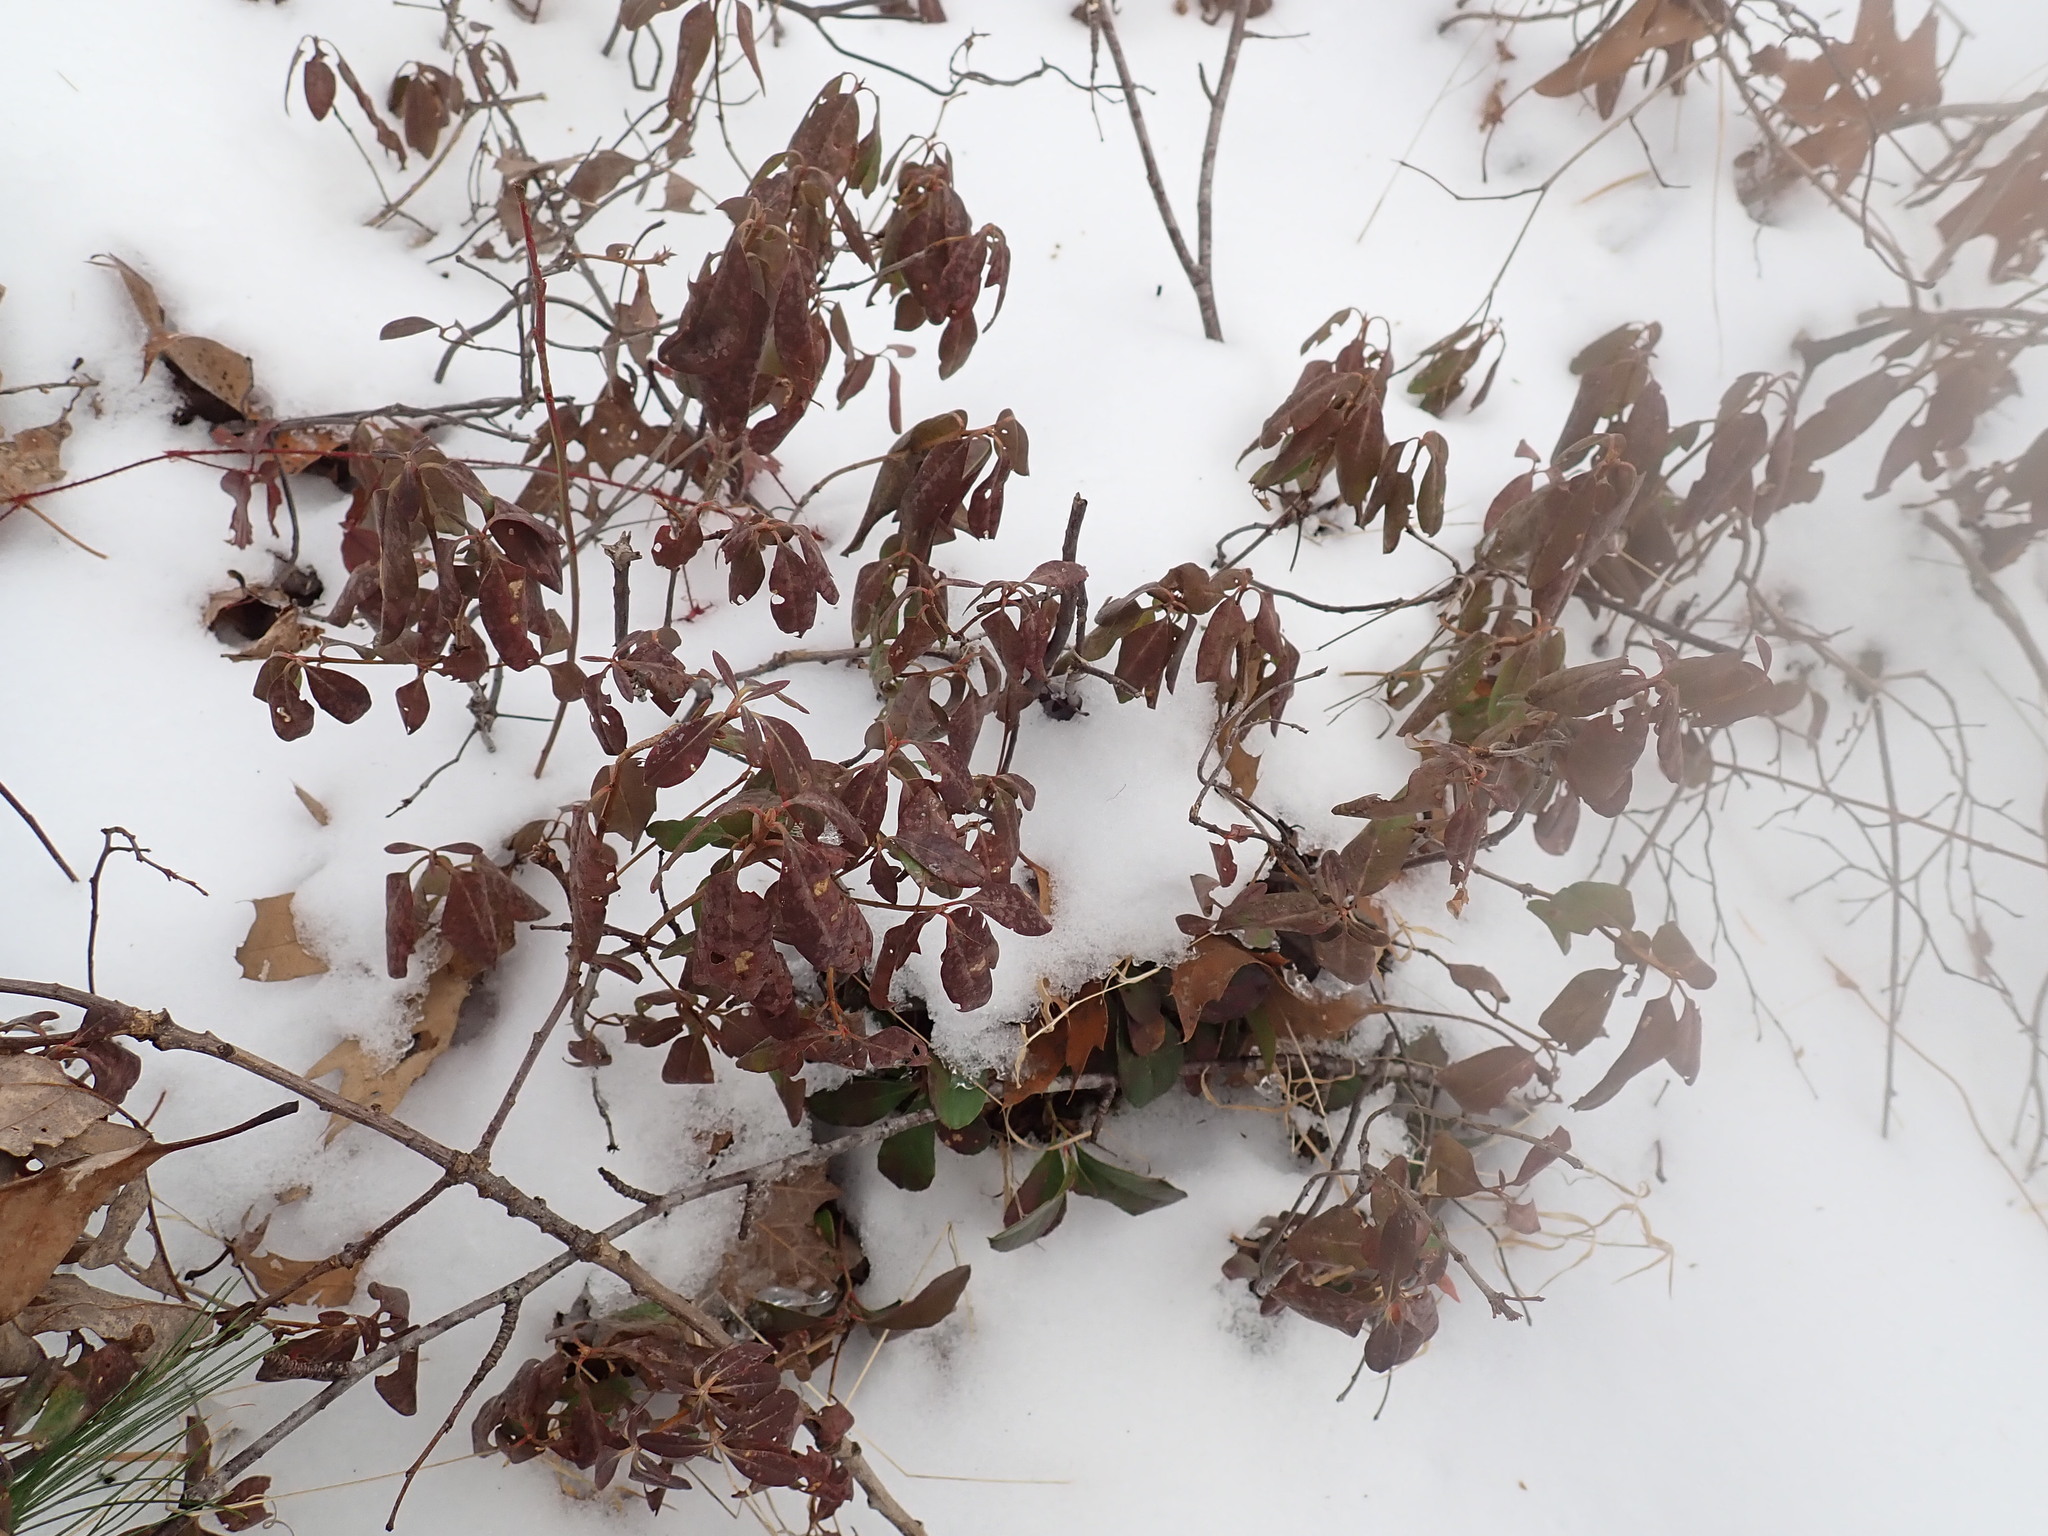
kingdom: Plantae
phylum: Tracheophyta
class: Magnoliopsida
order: Ericales
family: Ericaceae
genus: Kalmia
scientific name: Kalmia angustifolia
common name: Sheep-laurel
